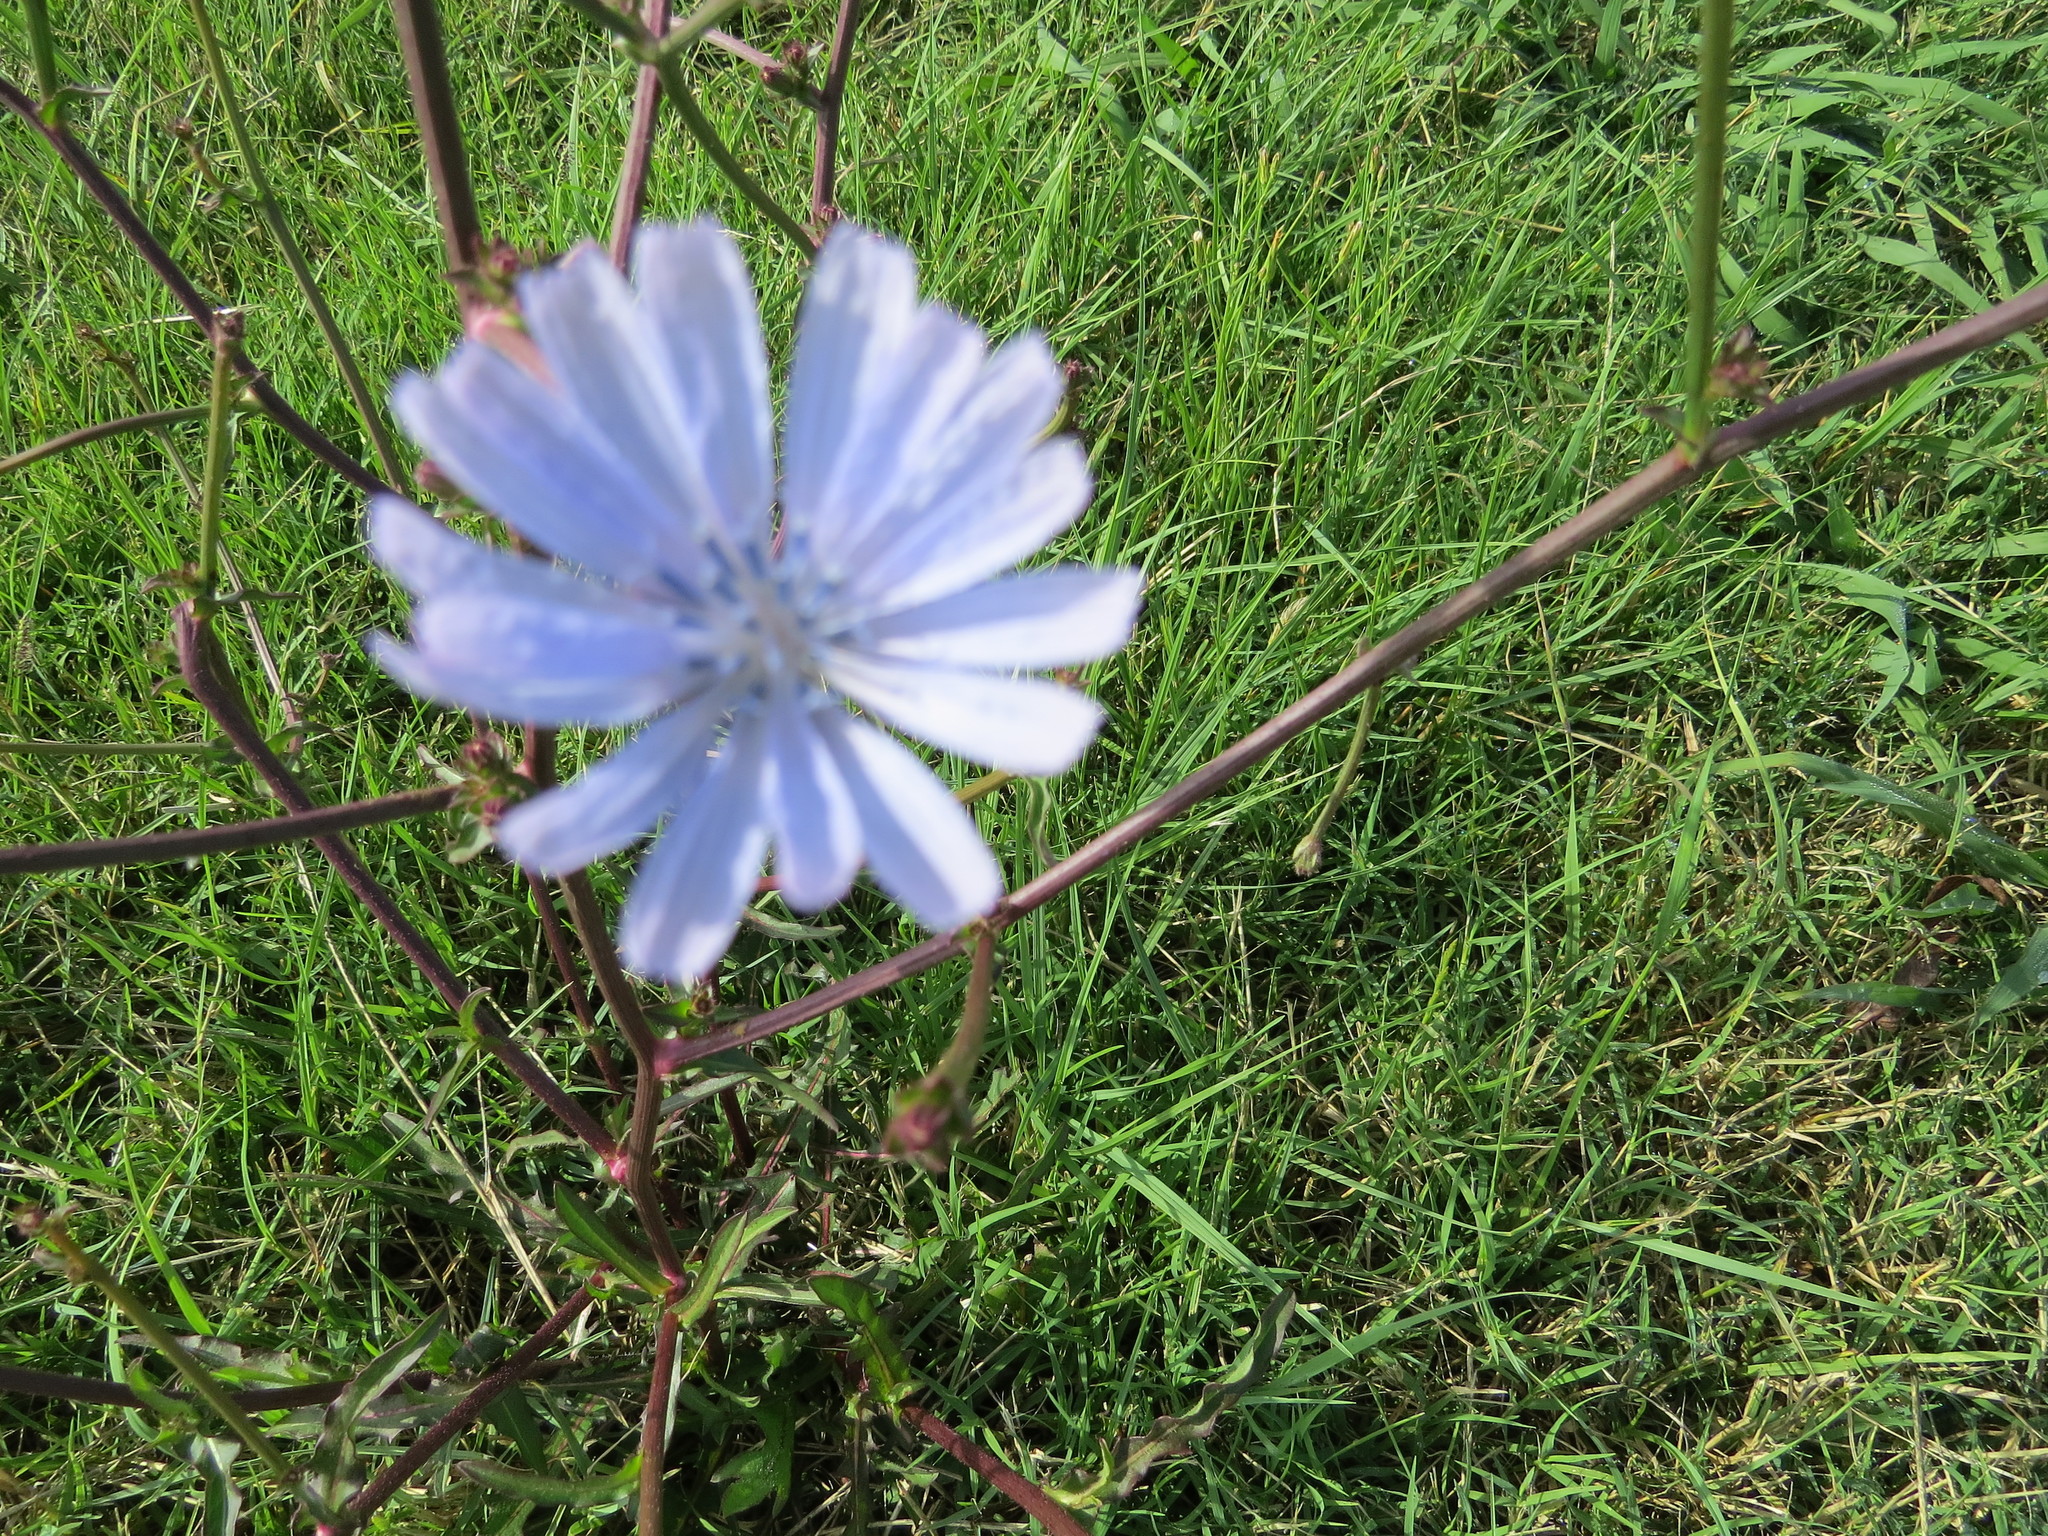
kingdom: Plantae
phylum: Tracheophyta
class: Magnoliopsida
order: Asterales
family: Asteraceae
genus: Cichorium
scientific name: Cichorium intybus
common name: Chicory
